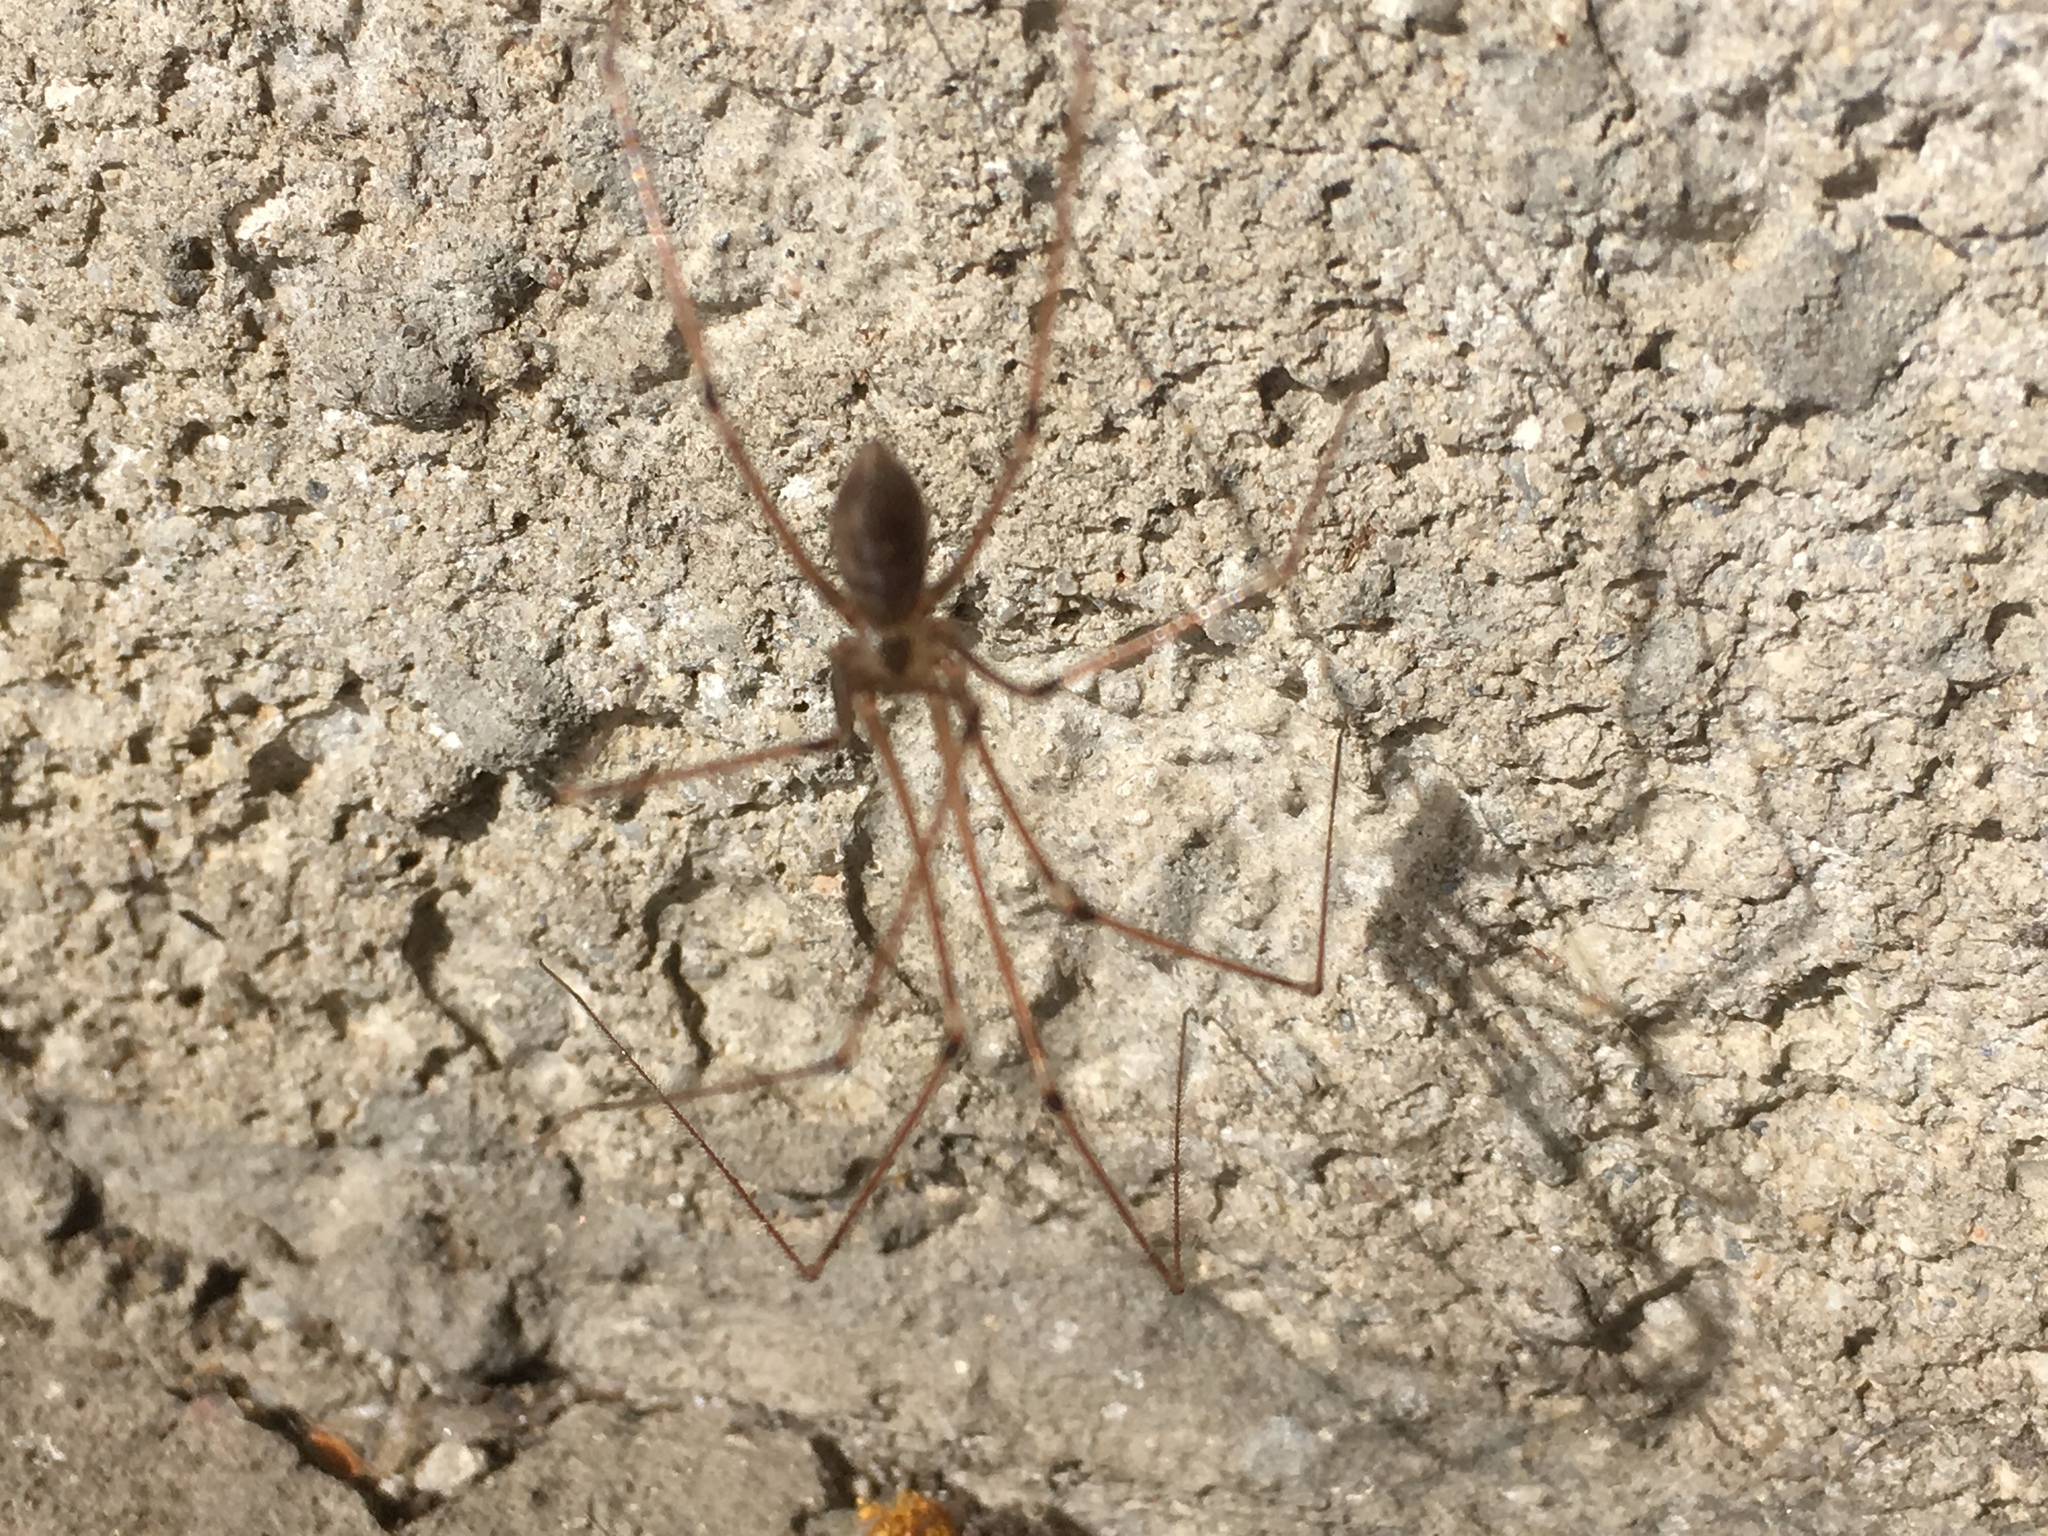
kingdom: Animalia
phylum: Arthropoda
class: Arachnida
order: Araneae
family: Pholcidae
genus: Pholcus
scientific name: Pholcus phalangioides
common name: Longbodied cellar spider
